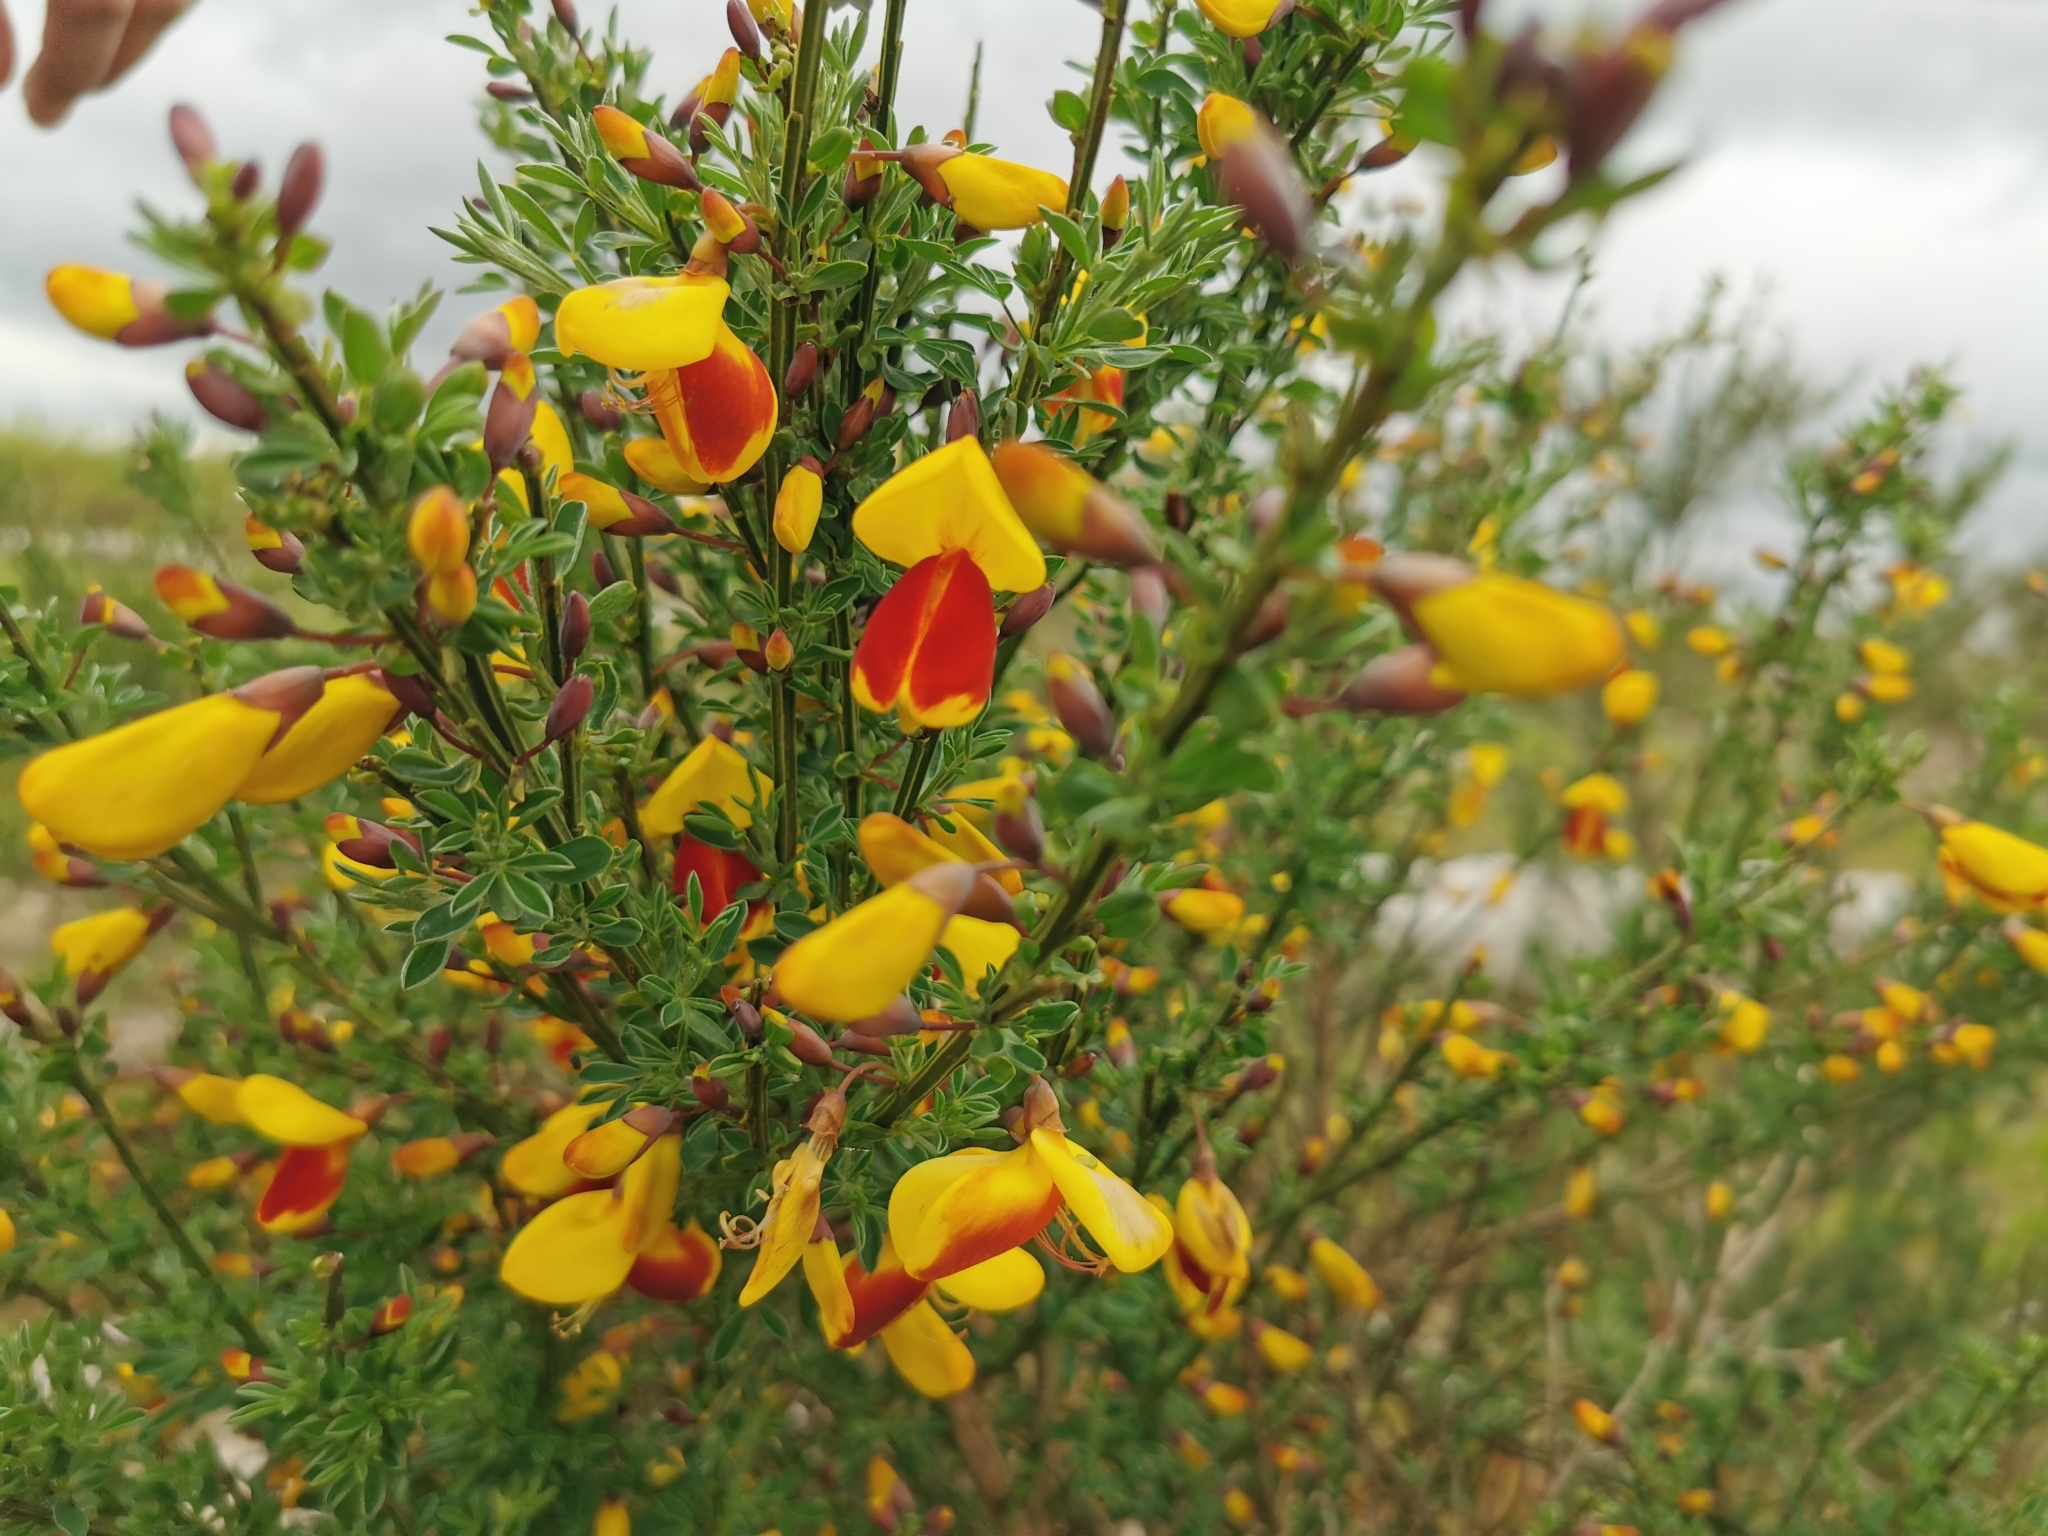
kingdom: Plantae
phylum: Tracheophyta
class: Magnoliopsida
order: Fabales
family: Fabaceae
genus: Cytisus
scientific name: Cytisus scoparius
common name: Scotch broom
